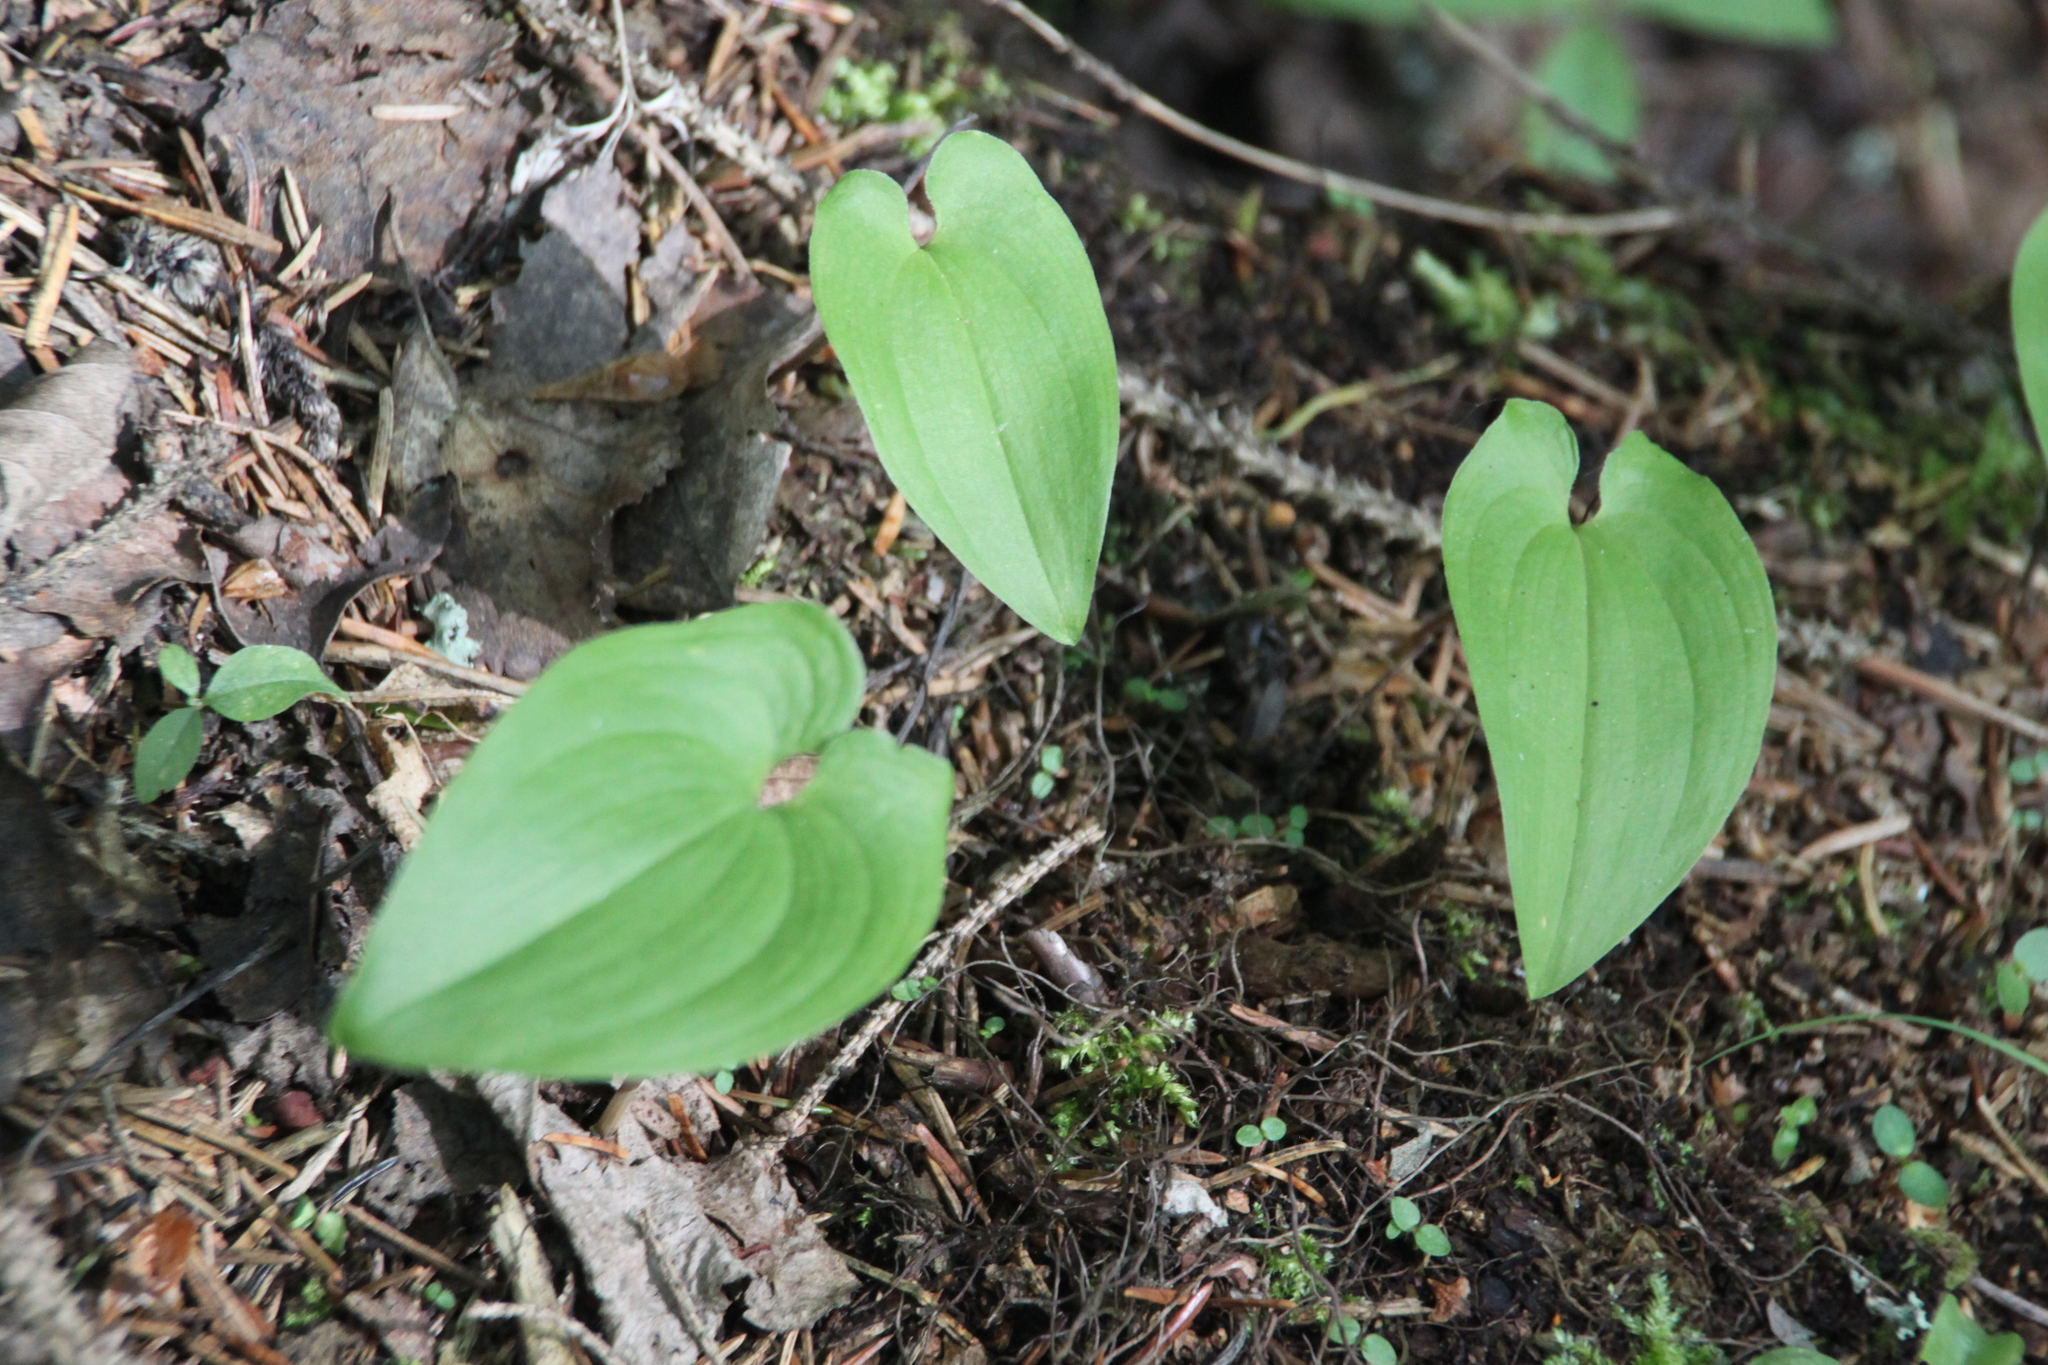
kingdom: Plantae
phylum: Tracheophyta
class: Liliopsida
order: Asparagales
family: Asparagaceae
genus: Maianthemum
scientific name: Maianthemum bifolium
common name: May lily
